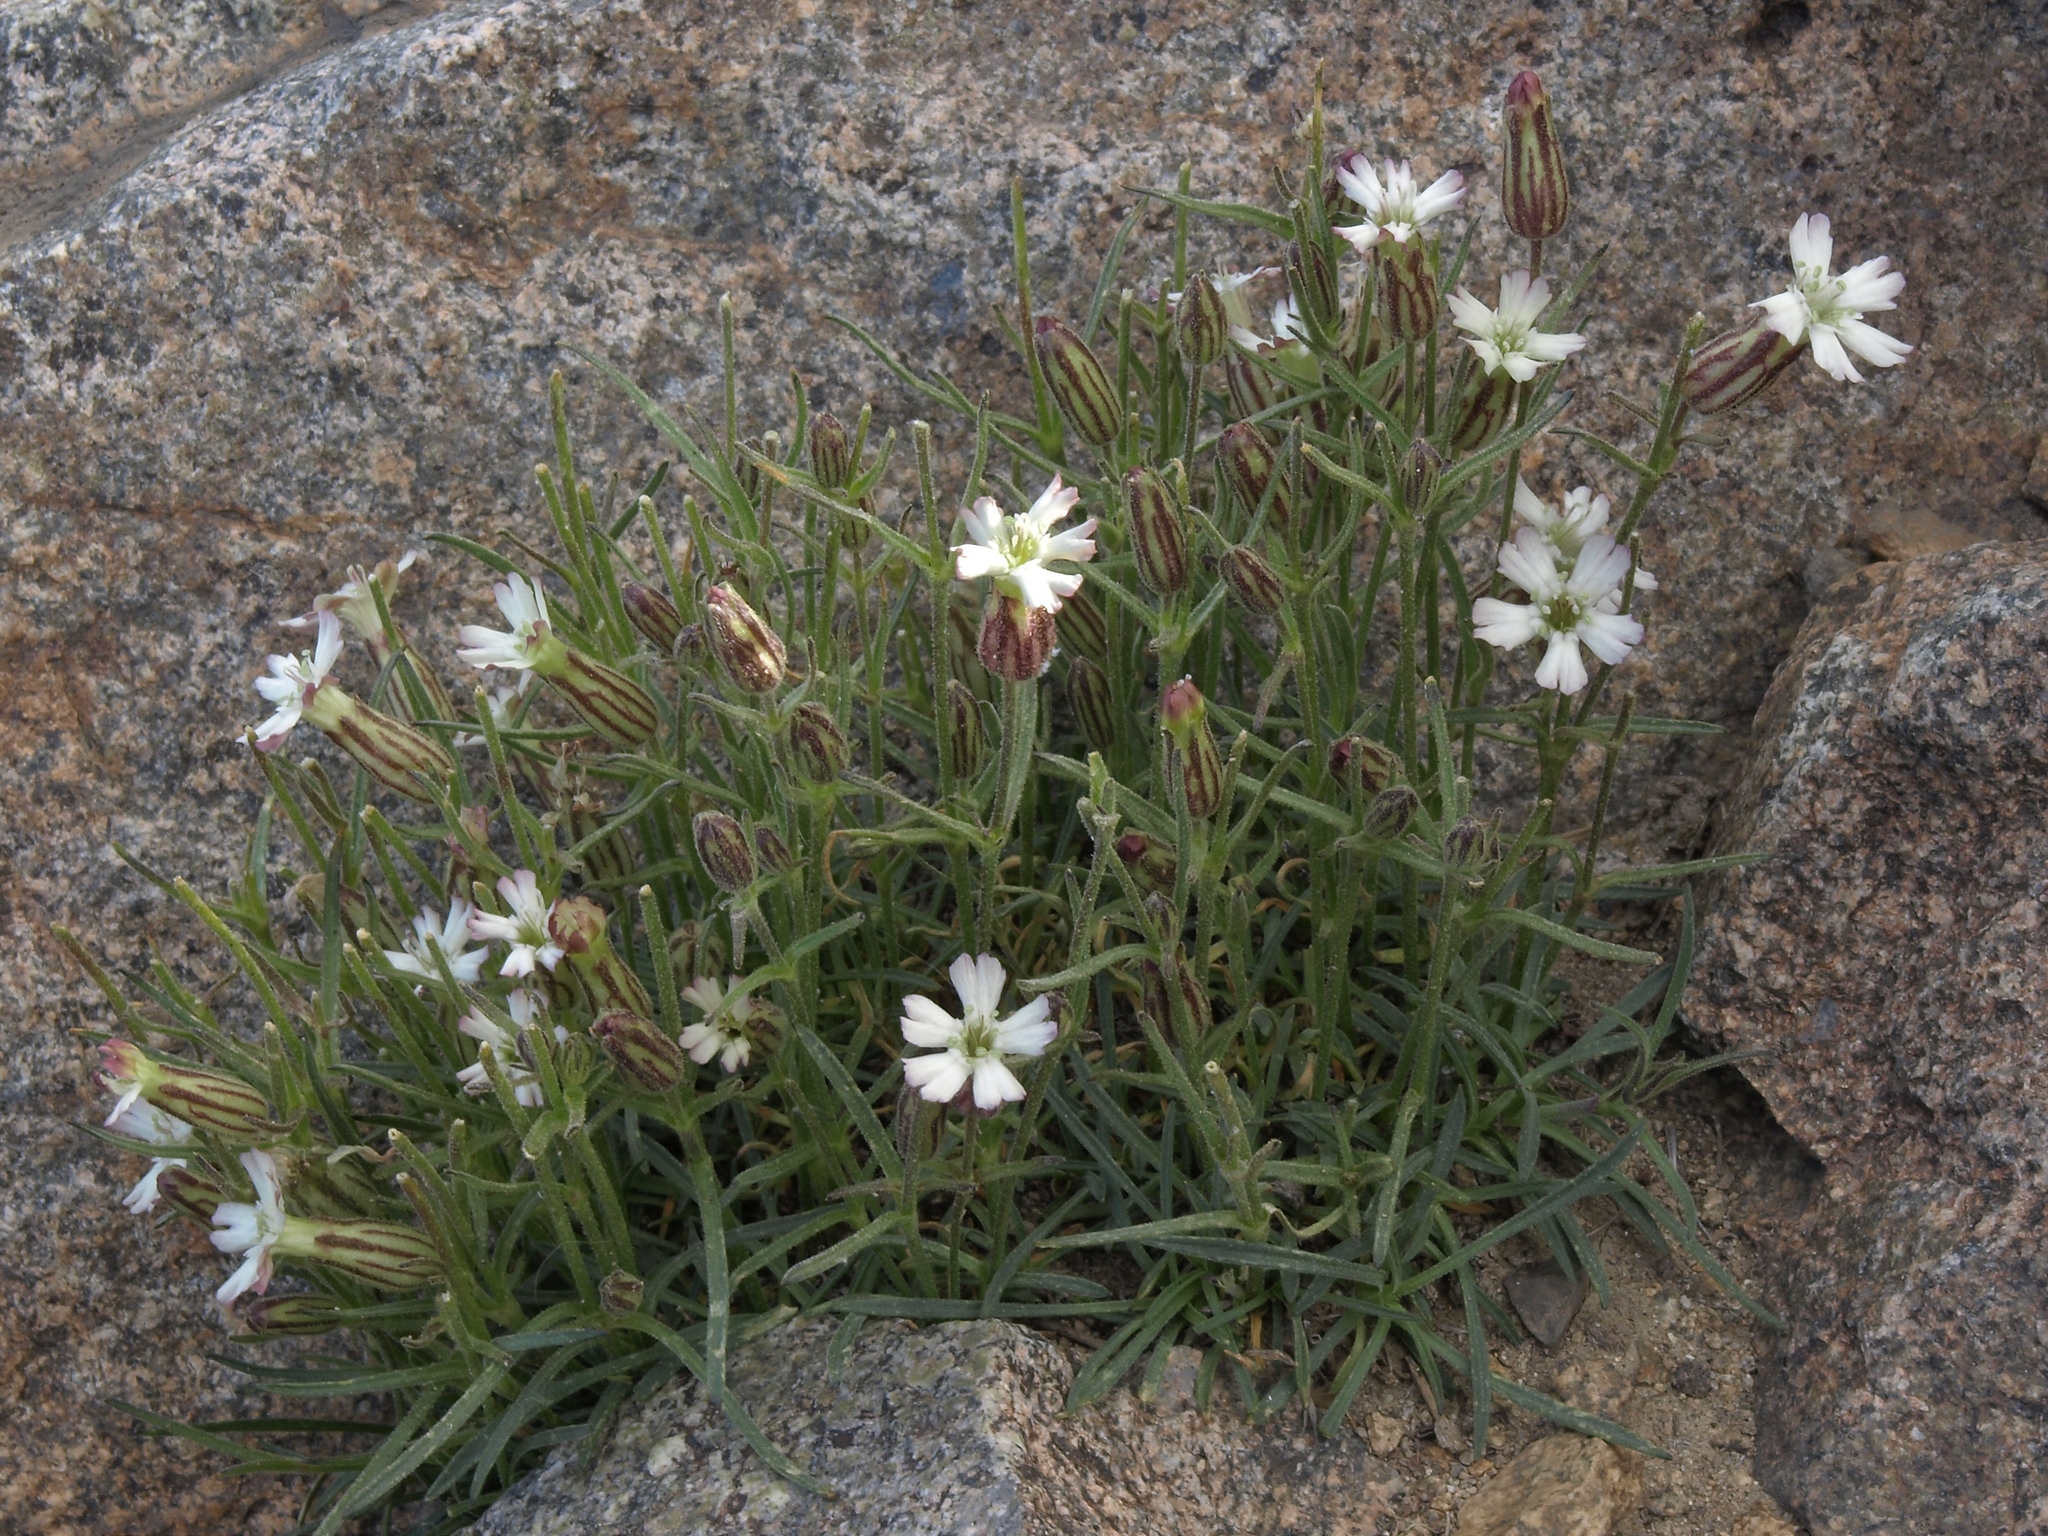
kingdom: Plantae
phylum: Tracheophyta
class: Magnoliopsida
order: Caryophyllales
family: Caryophyllaceae
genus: Silene
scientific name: Silene sargentii
